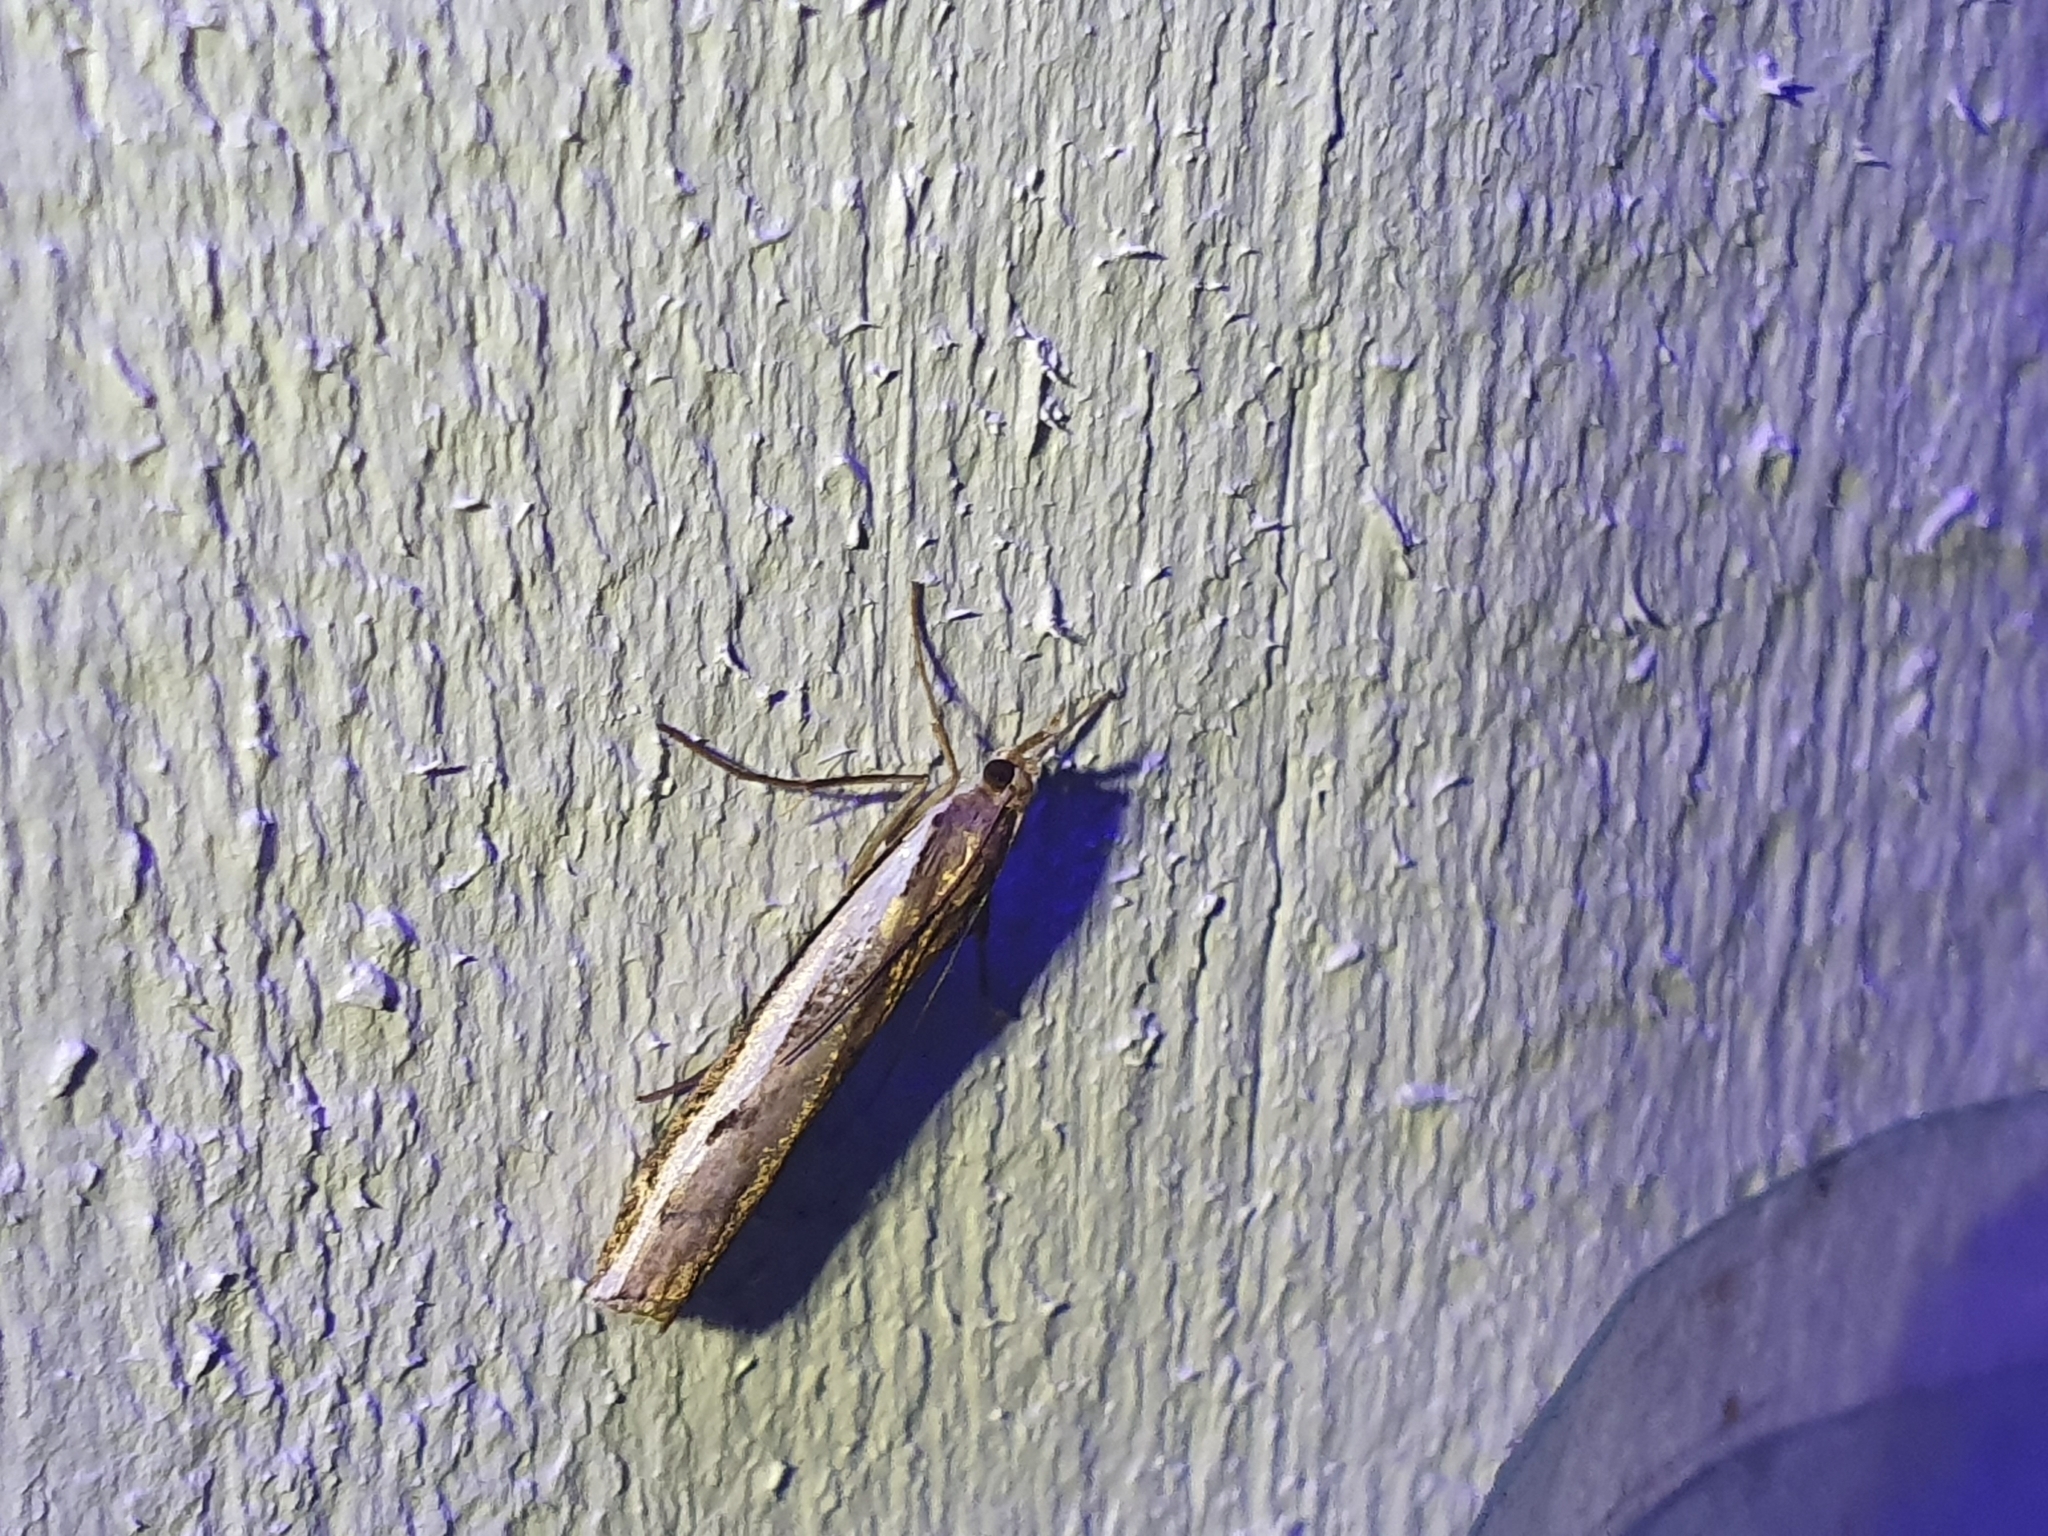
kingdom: Animalia
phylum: Arthropoda
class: Insecta
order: Lepidoptera
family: Crambidae
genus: Orocrambus
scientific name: Orocrambus flexuosellus
